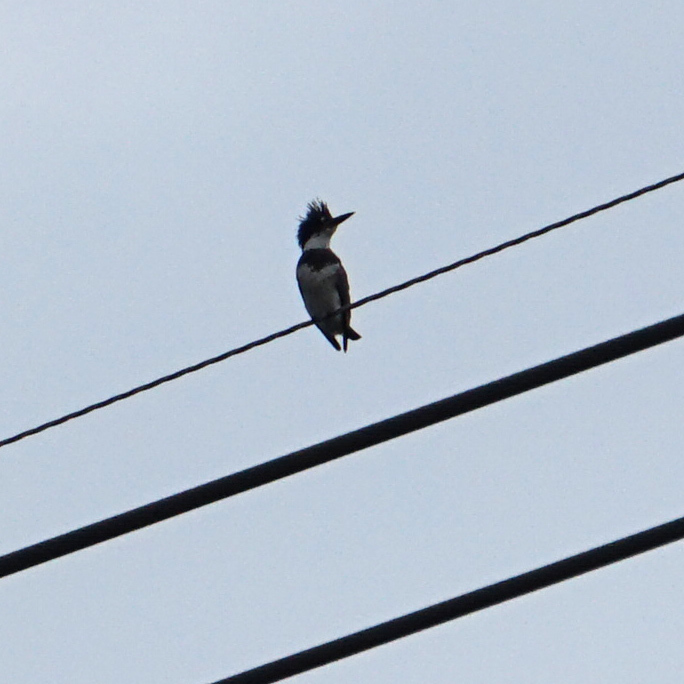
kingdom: Animalia
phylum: Chordata
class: Aves
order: Coraciiformes
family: Alcedinidae
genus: Megaceryle
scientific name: Megaceryle alcyon
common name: Belted kingfisher
